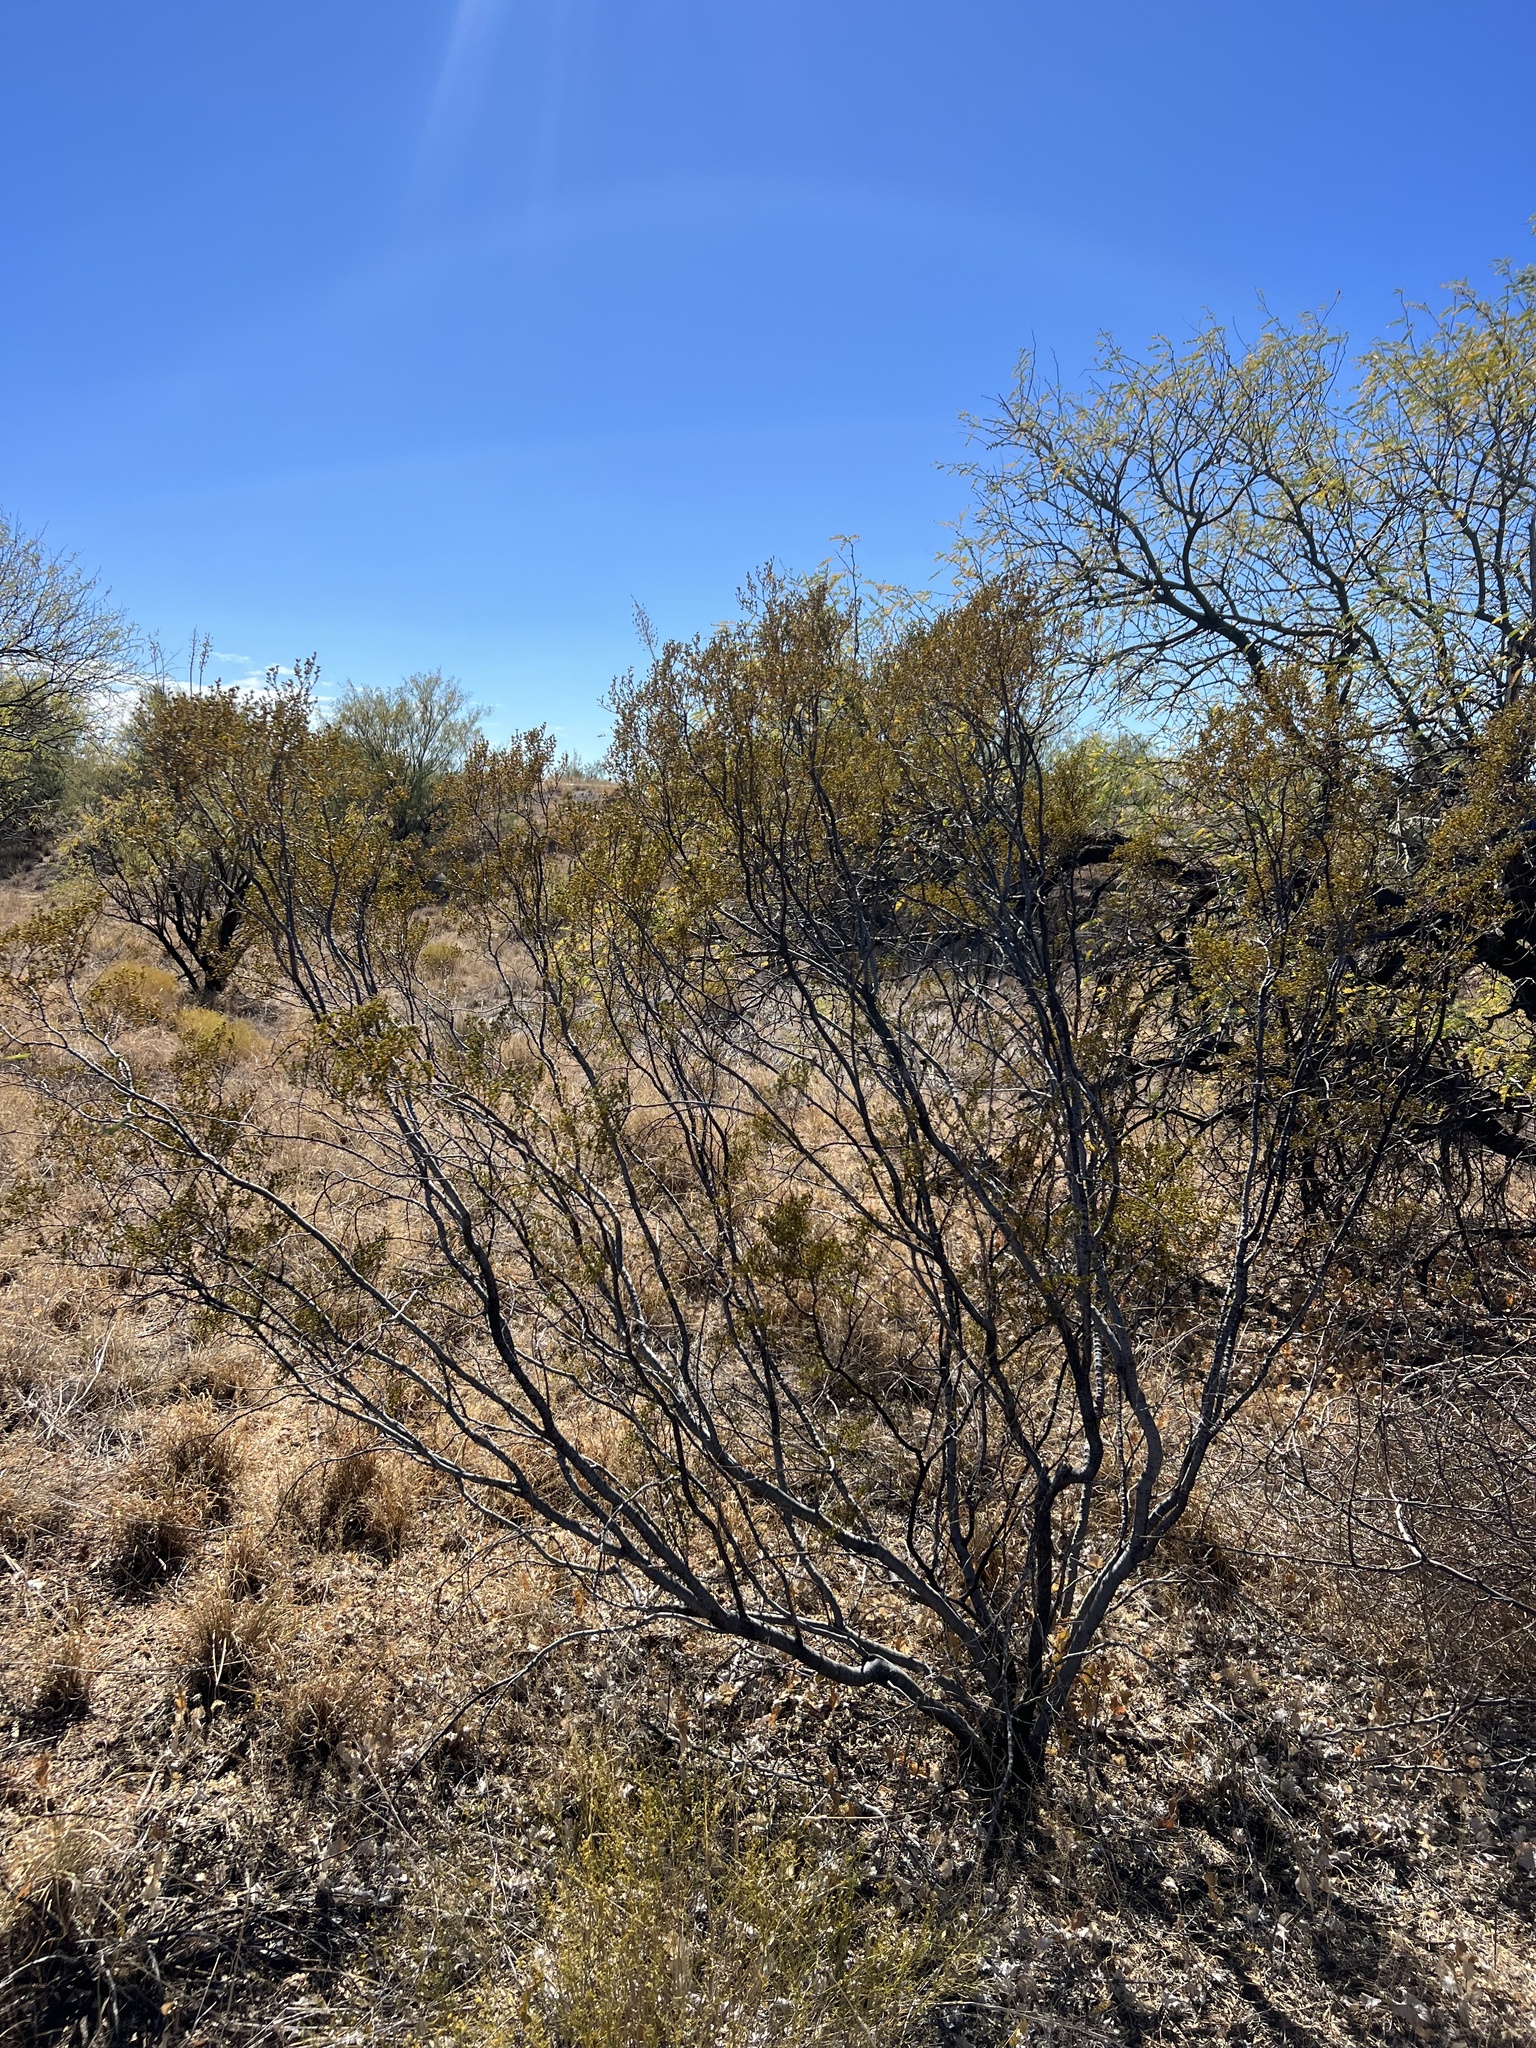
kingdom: Plantae
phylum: Tracheophyta
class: Magnoliopsida
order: Zygophyllales
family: Zygophyllaceae
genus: Larrea
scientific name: Larrea tridentata
